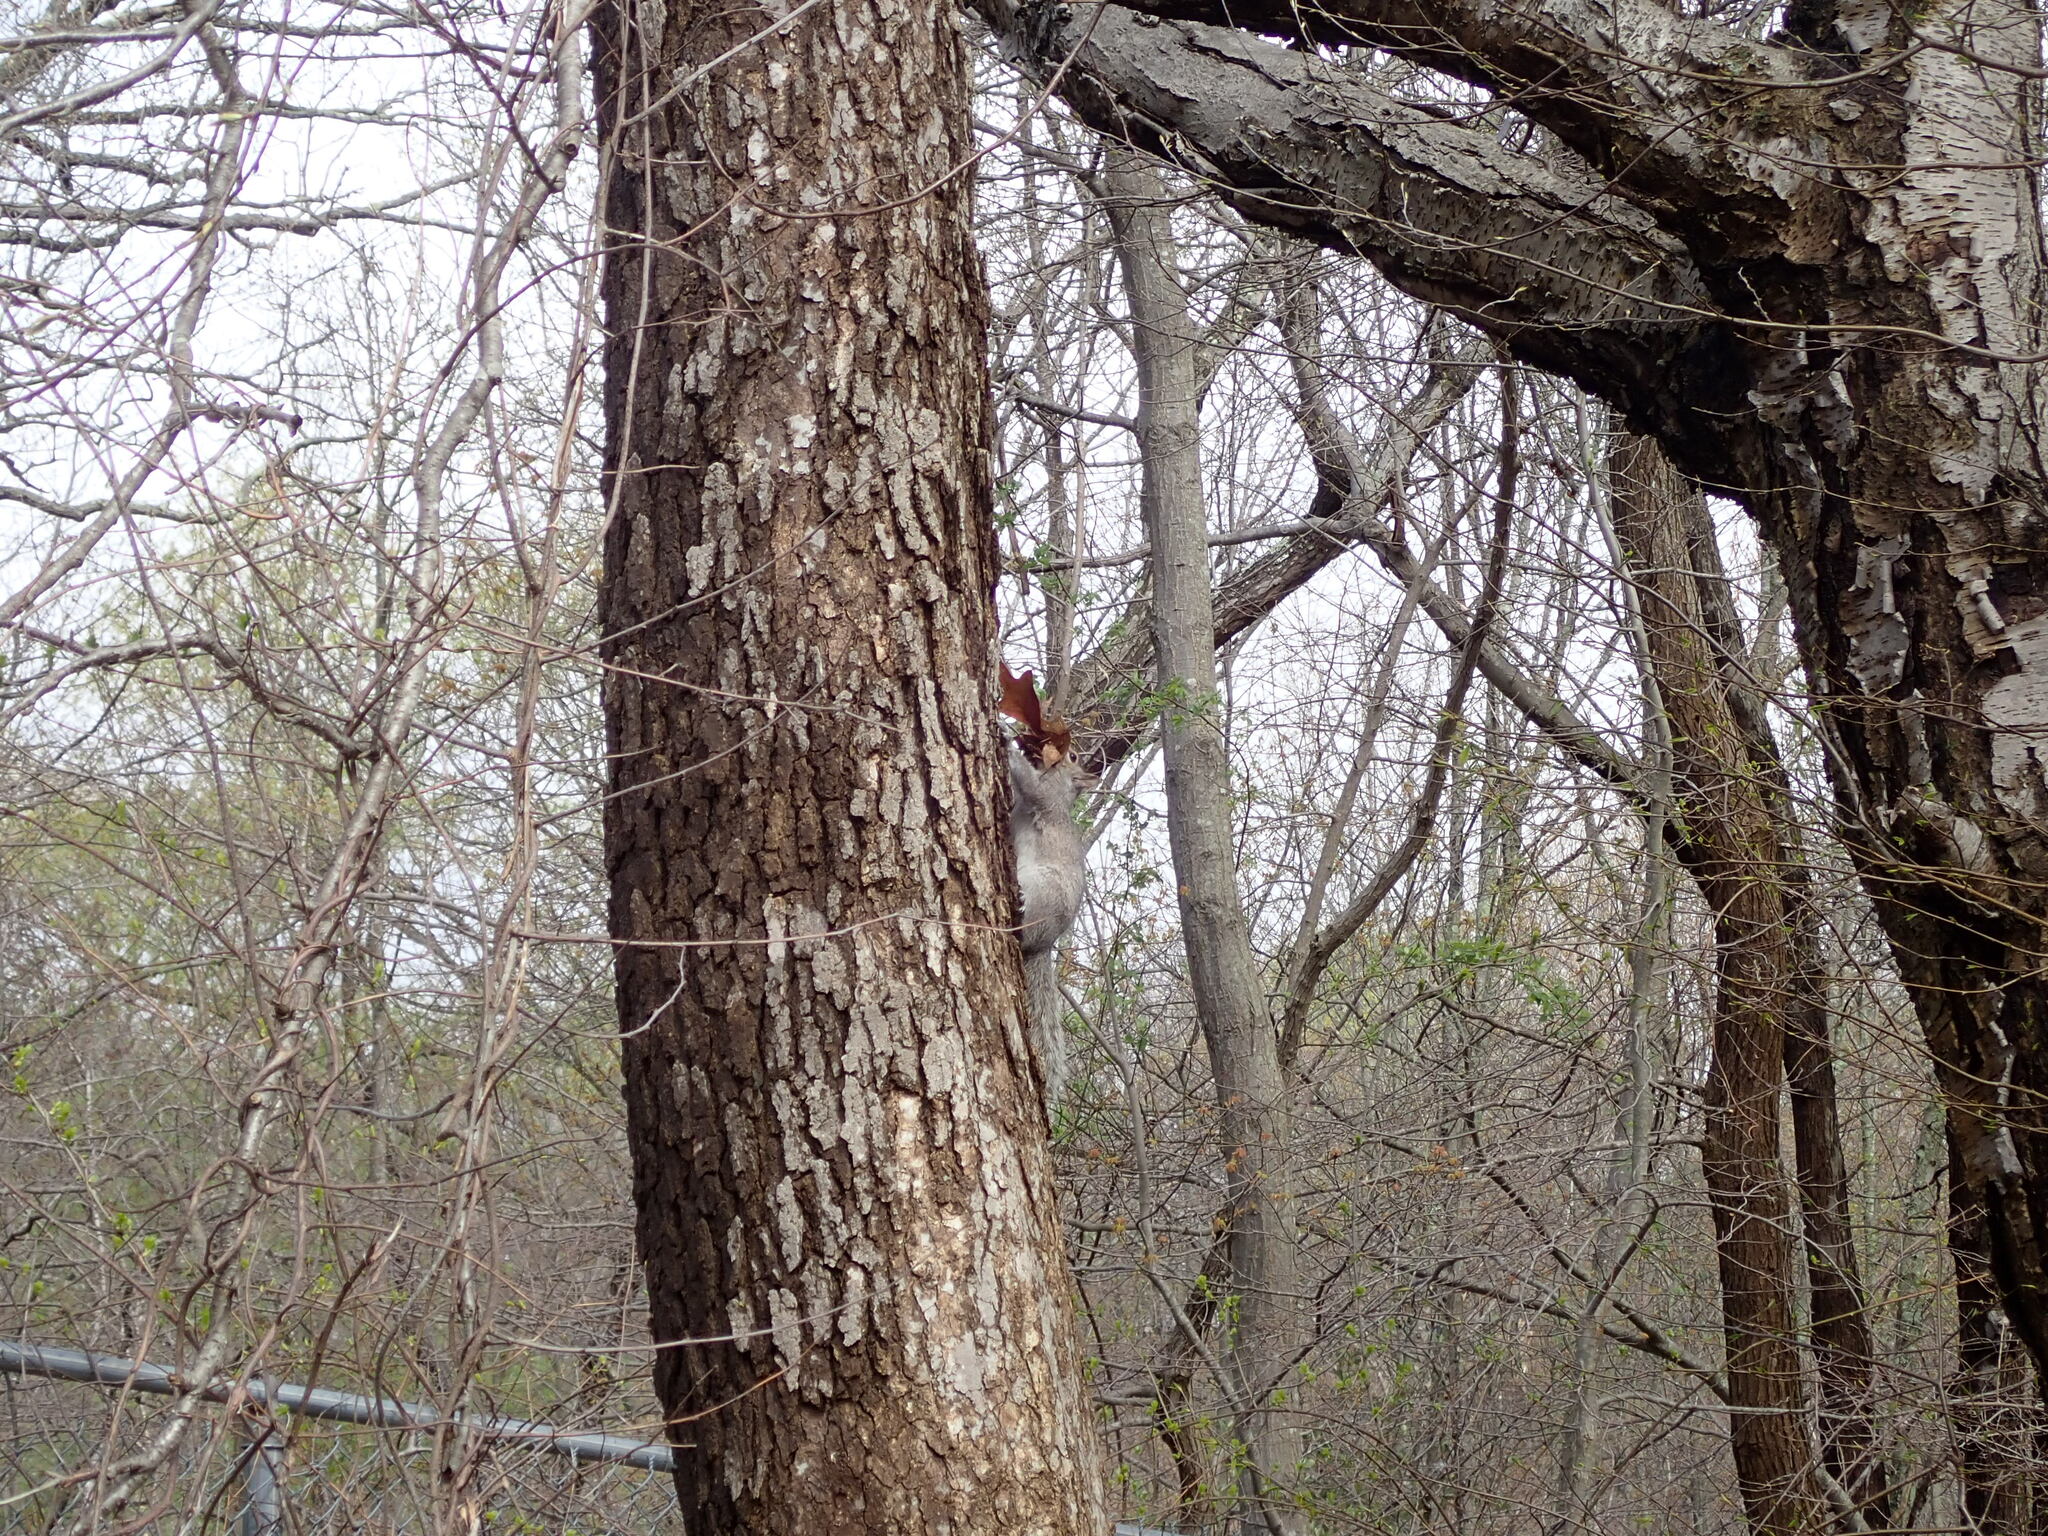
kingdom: Animalia
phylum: Chordata
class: Mammalia
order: Rodentia
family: Sciuridae
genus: Sciurus
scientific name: Sciurus carolinensis
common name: Eastern gray squirrel
